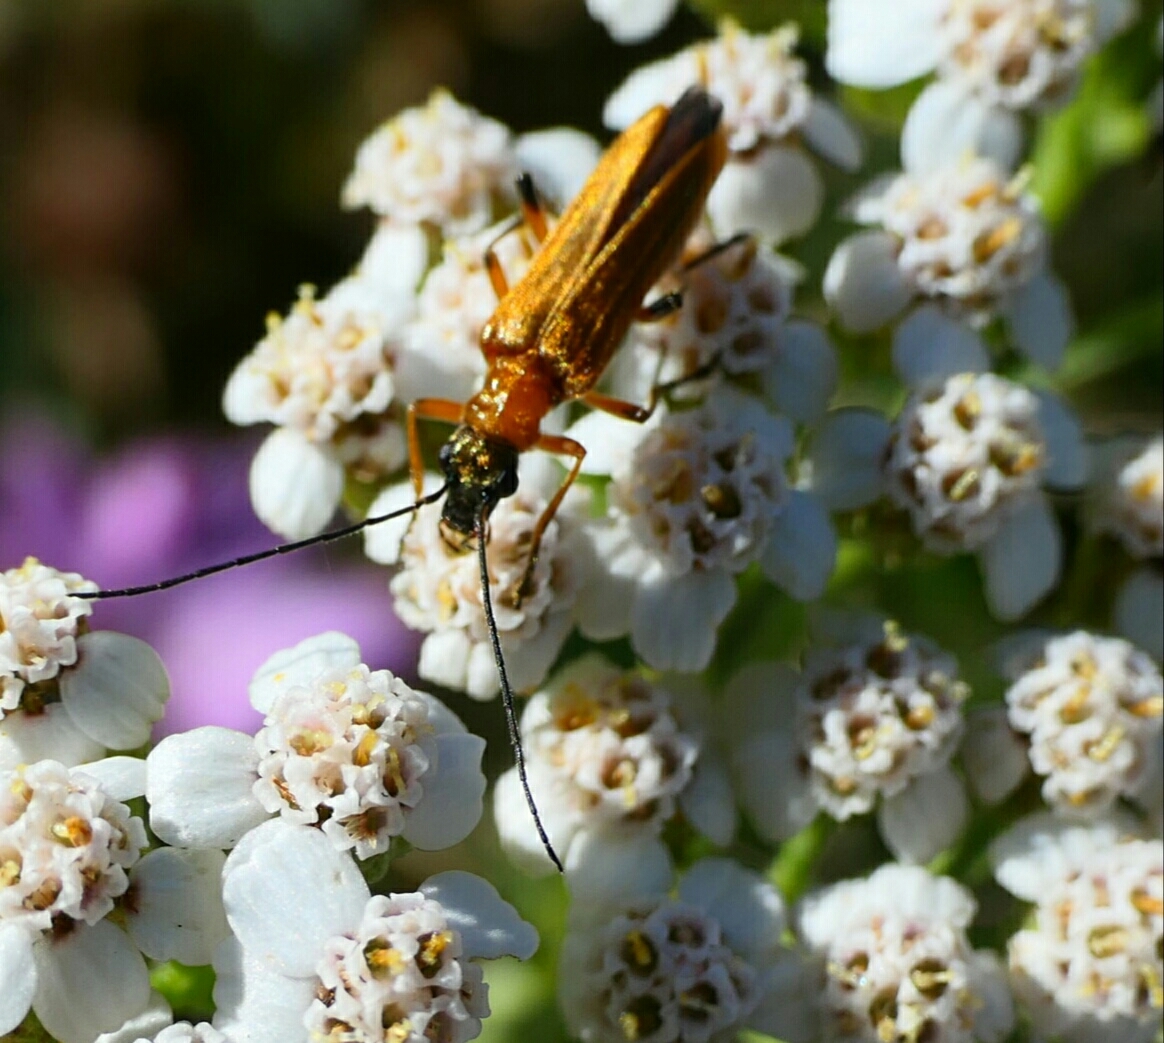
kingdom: Animalia
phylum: Arthropoda
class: Insecta
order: Coleoptera
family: Oedemeridae
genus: Oedemera
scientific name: Oedemera podagrariae
